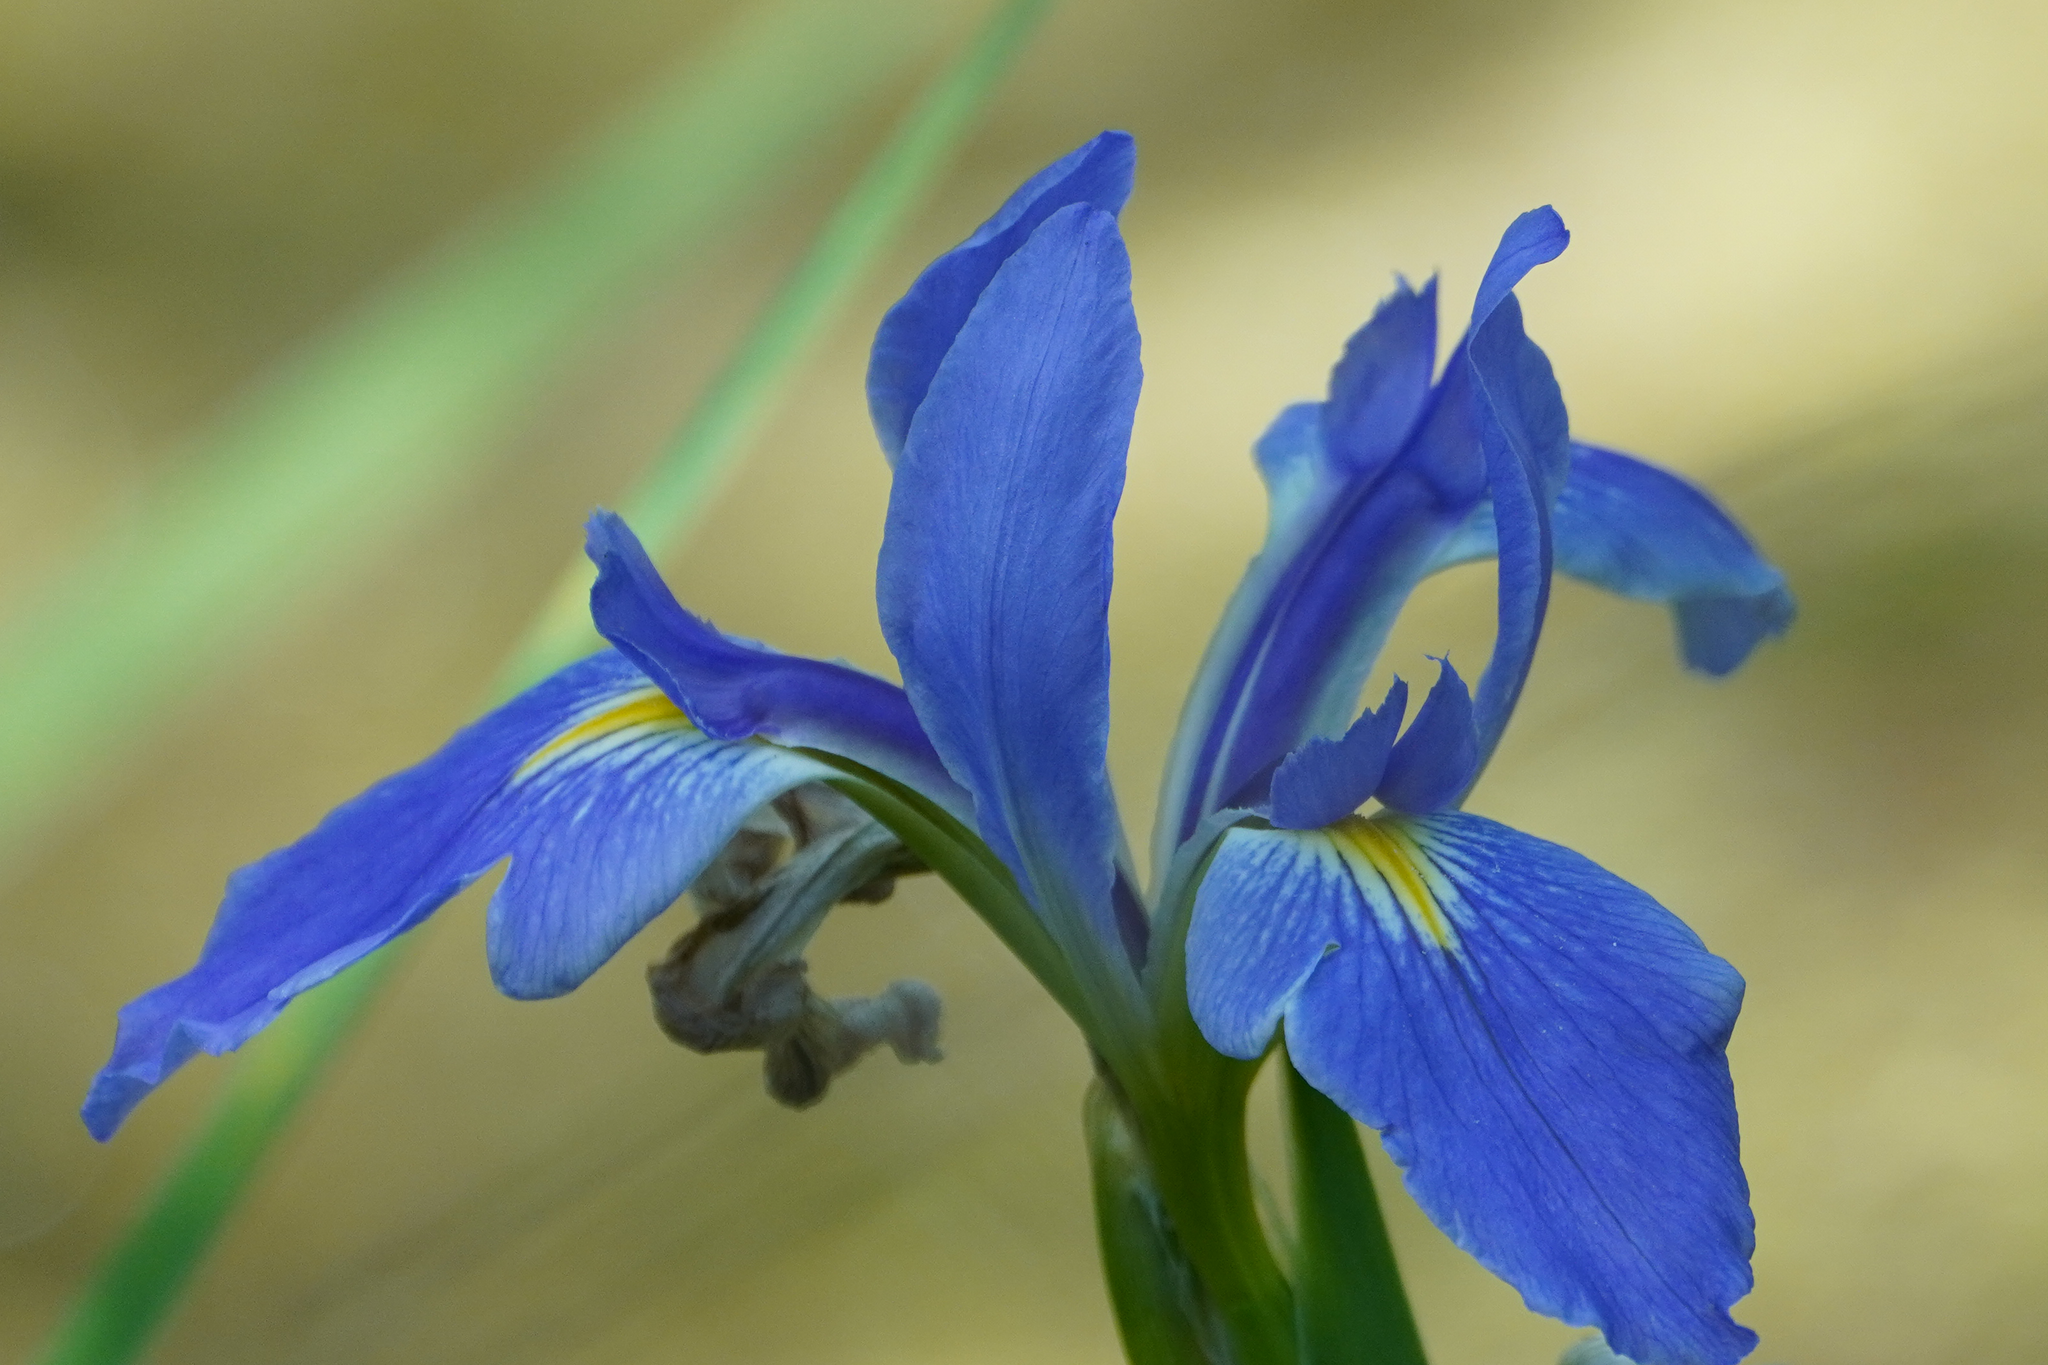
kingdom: Plantae
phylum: Tracheophyta
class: Liliopsida
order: Asparagales
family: Iridaceae
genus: Iris
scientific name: Iris savannarum
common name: Prairie iris
